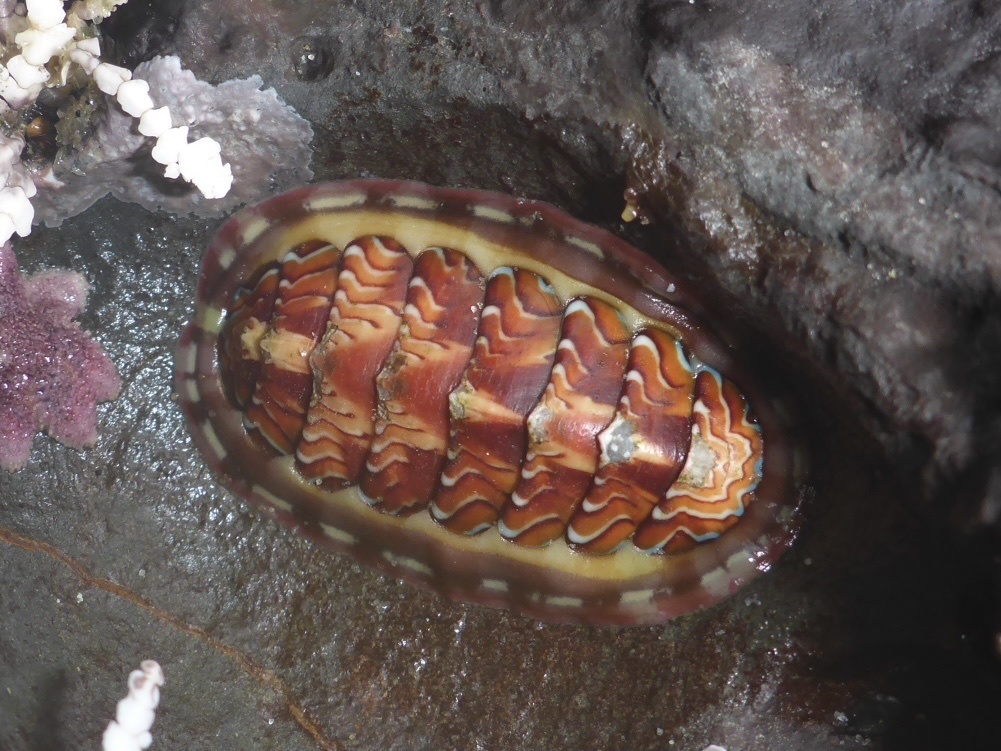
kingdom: Animalia
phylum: Mollusca
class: Polyplacophora
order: Chitonida
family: Tonicellidae
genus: Tonicella
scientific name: Tonicella lokii
